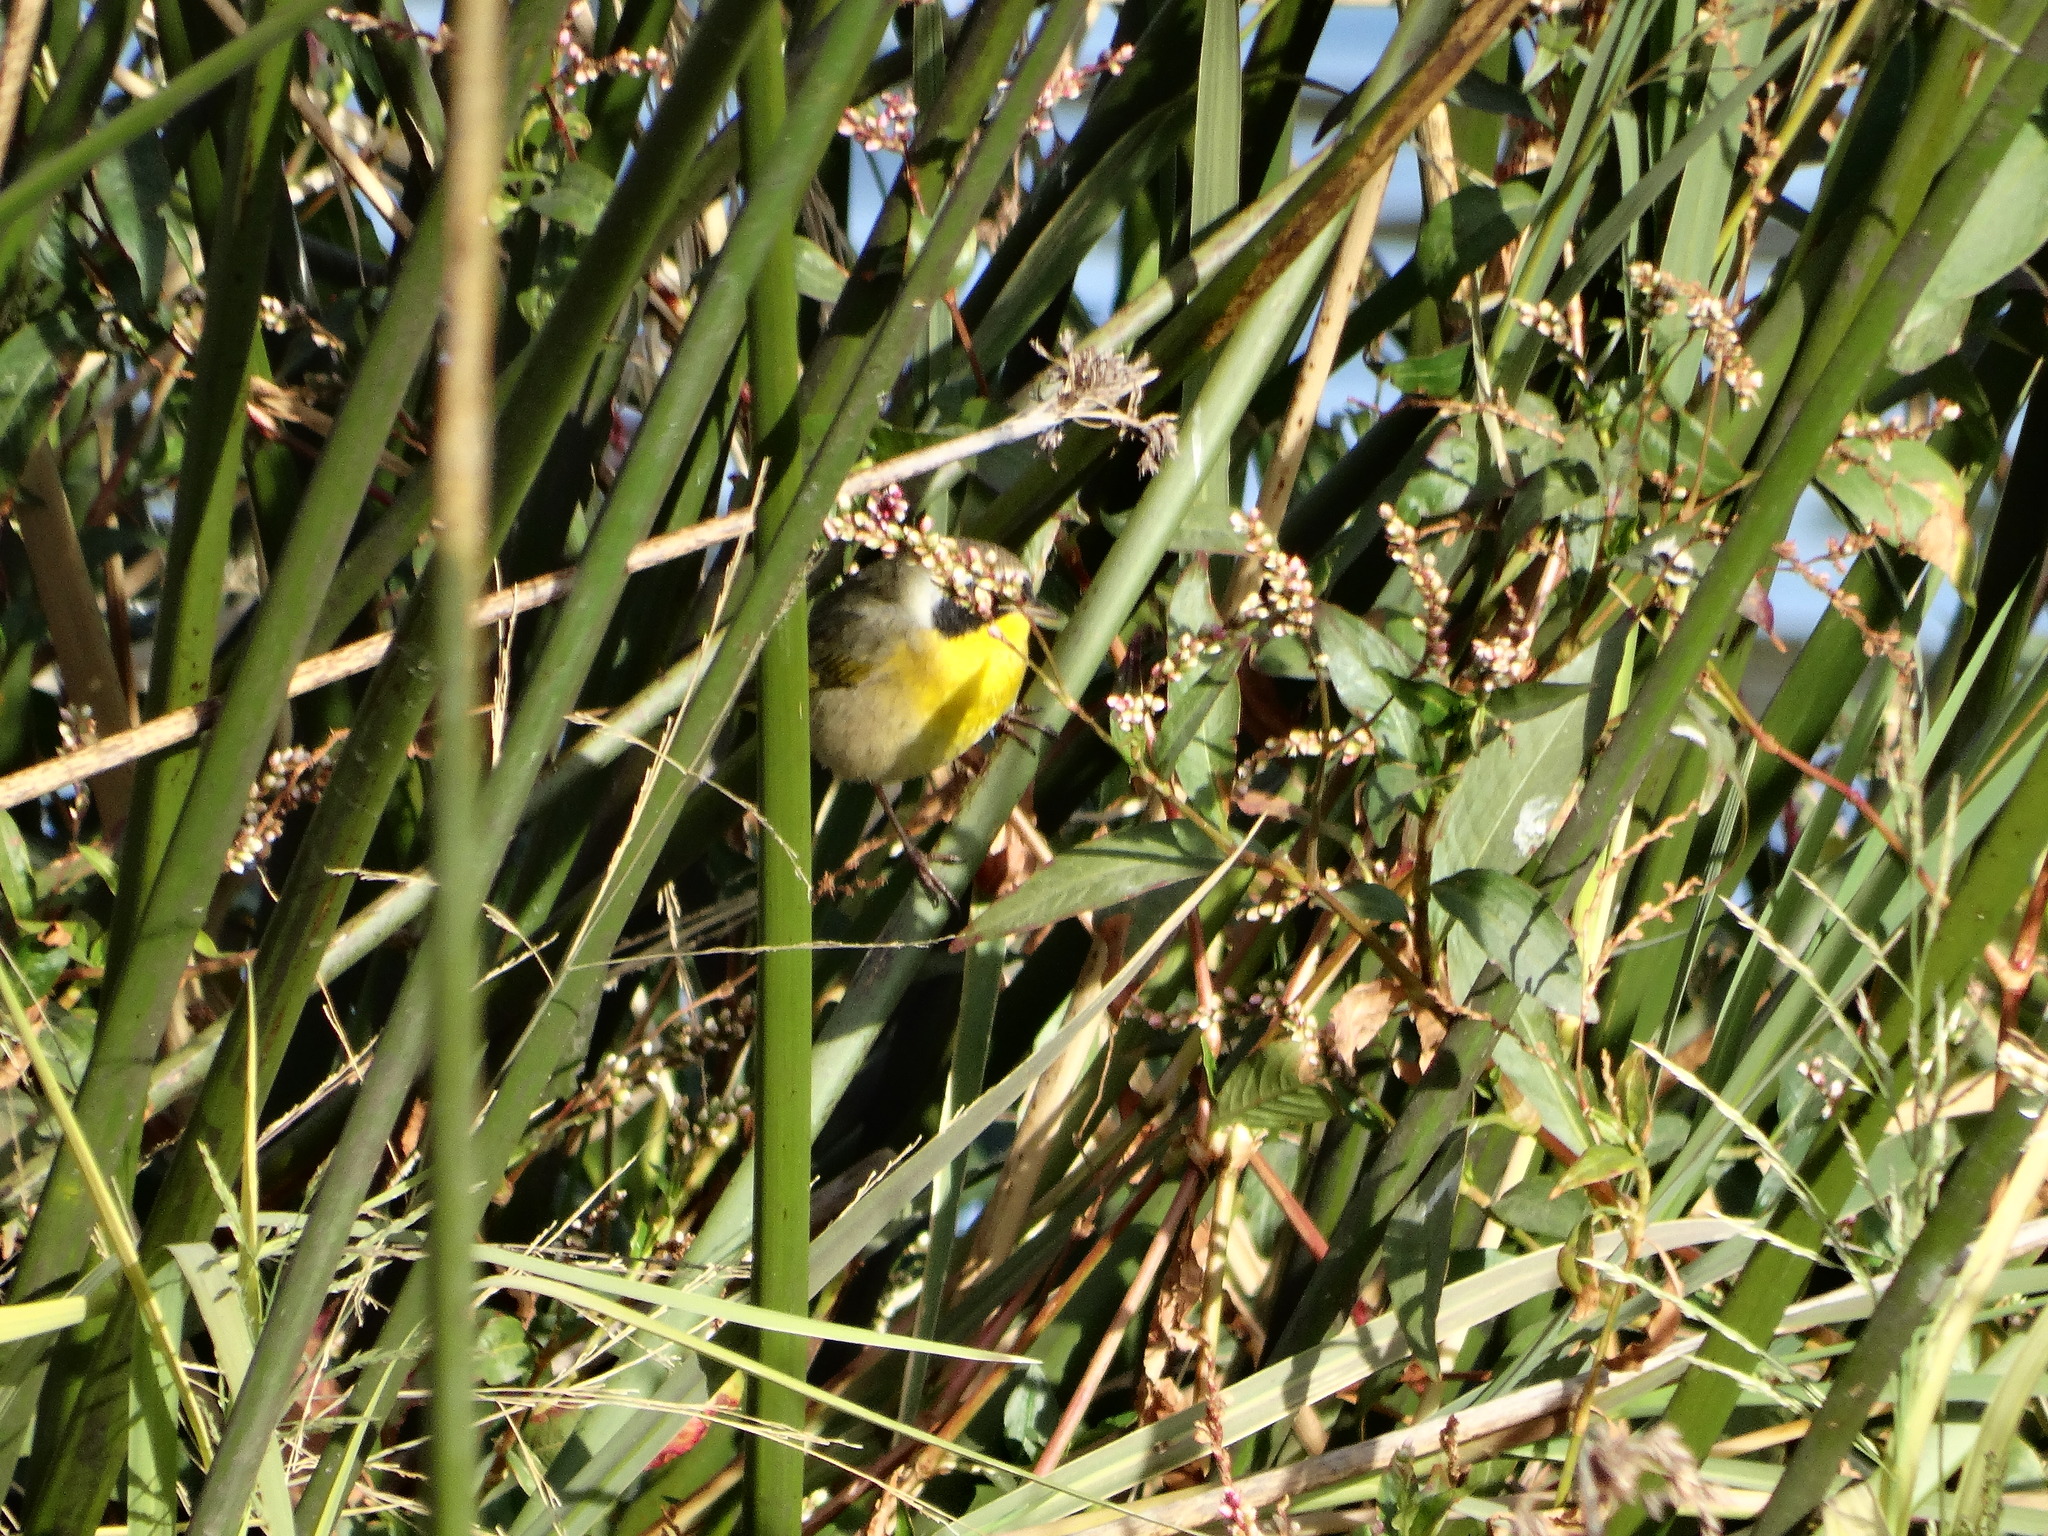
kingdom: Animalia
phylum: Chordata
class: Aves
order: Passeriformes
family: Parulidae
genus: Geothlypis
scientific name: Geothlypis trichas
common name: Common yellowthroat
